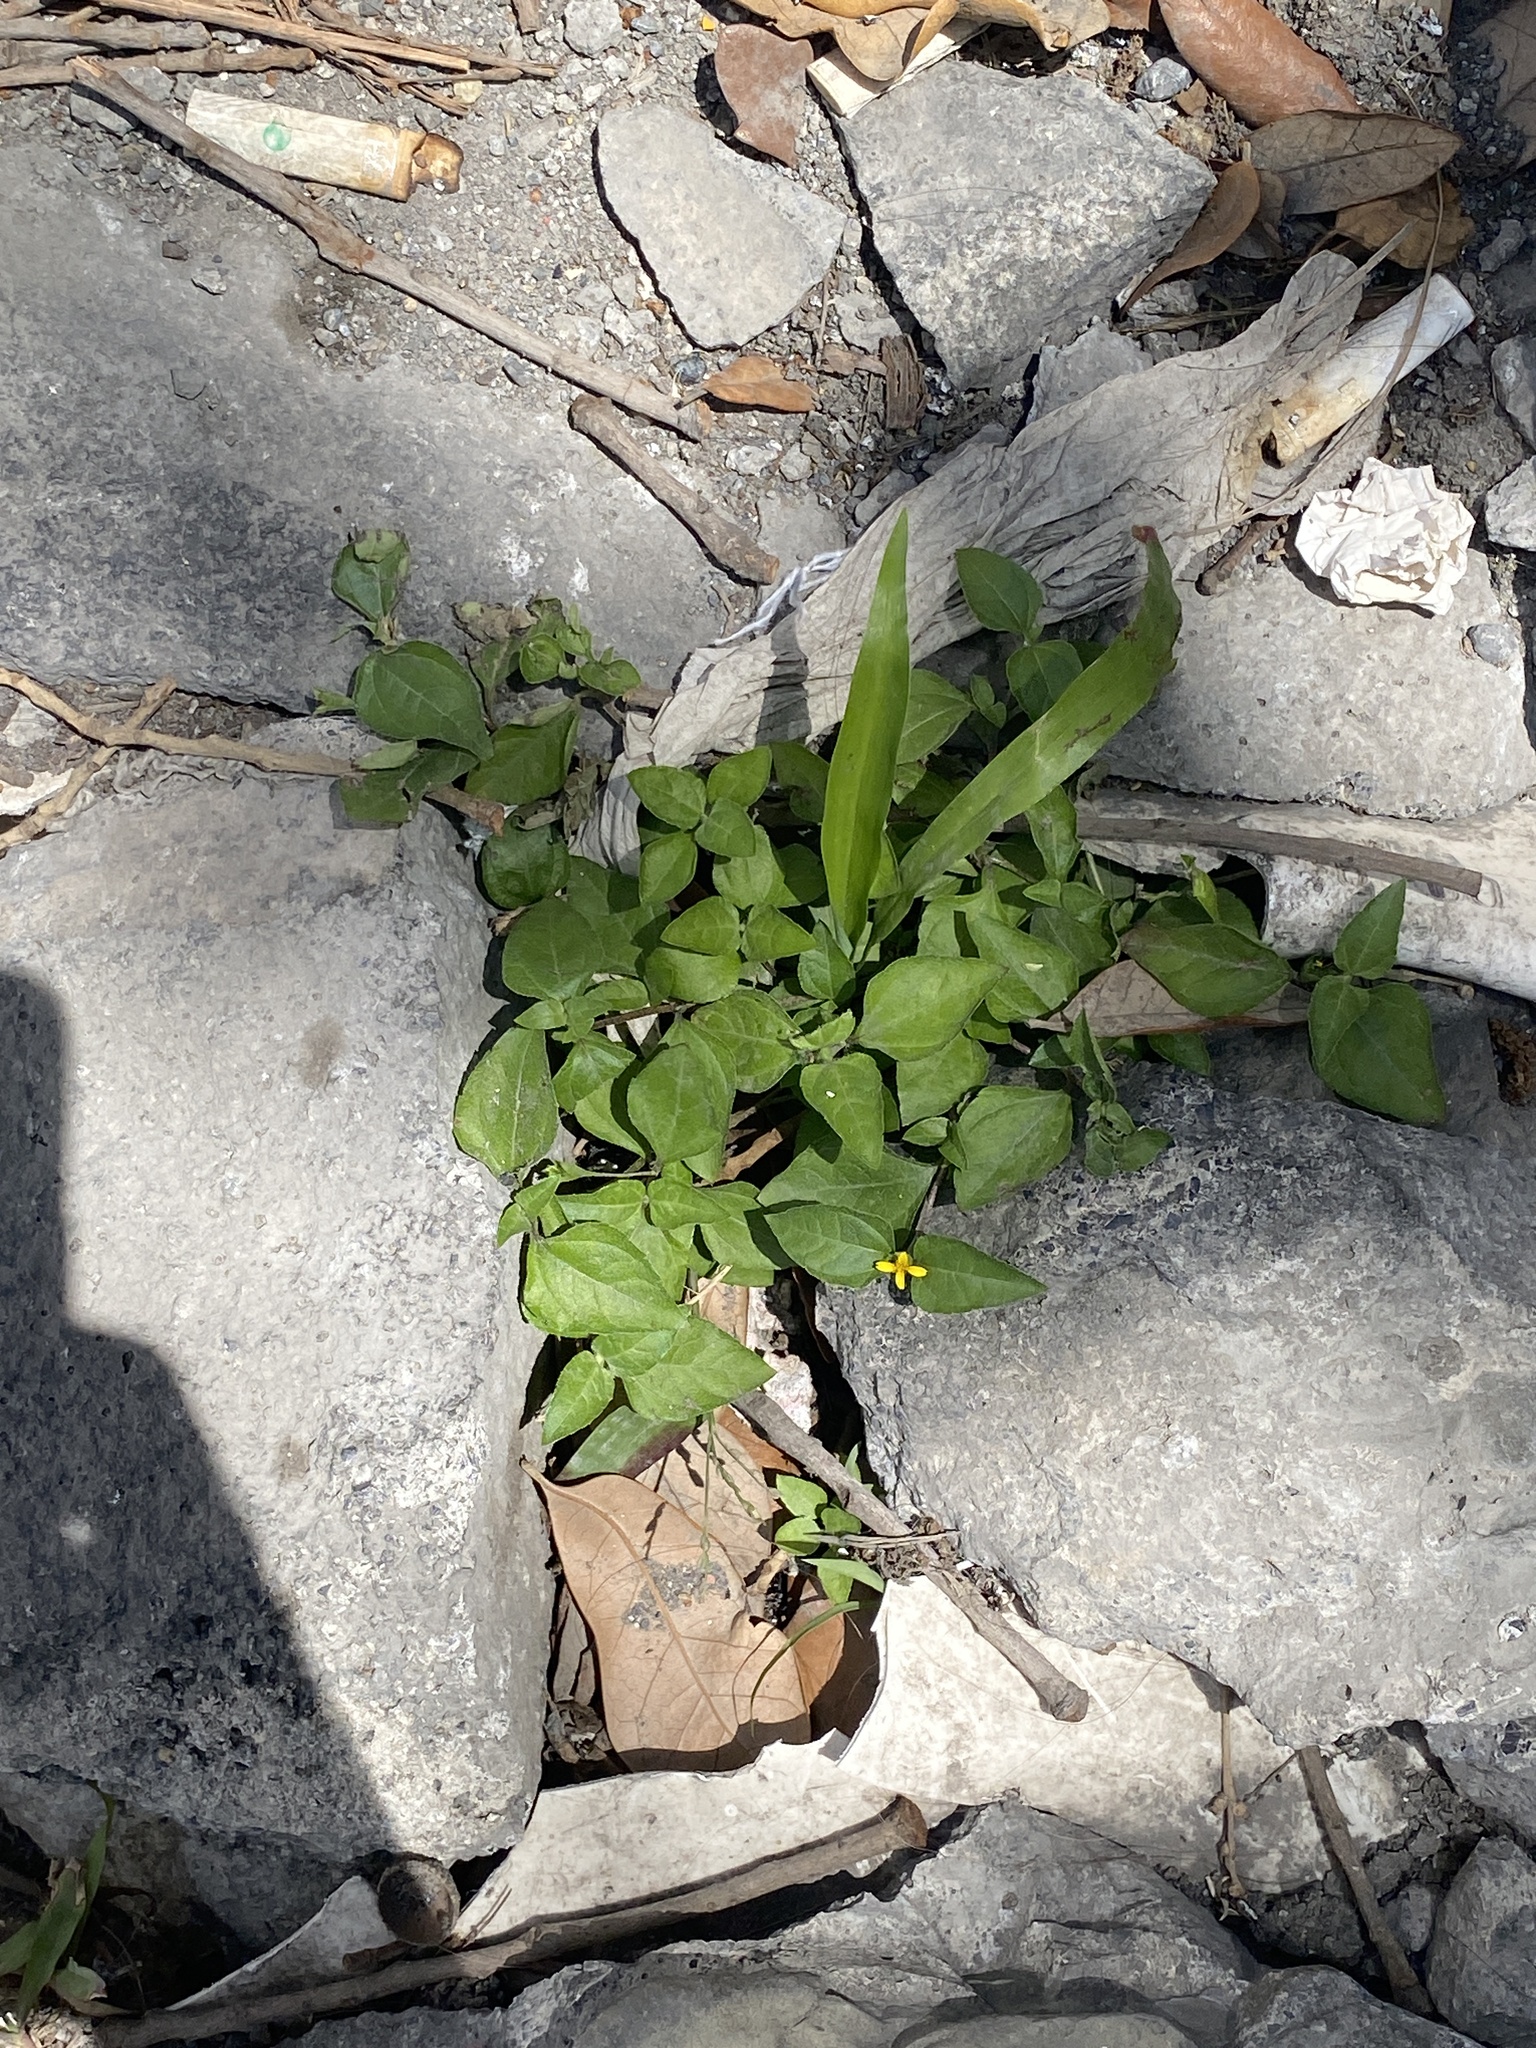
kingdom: Plantae
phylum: Tracheophyta
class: Magnoliopsida
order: Asterales
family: Asteraceae
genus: Calyptocarpus
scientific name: Calyptocarpus vialis
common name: Straggler daisy
